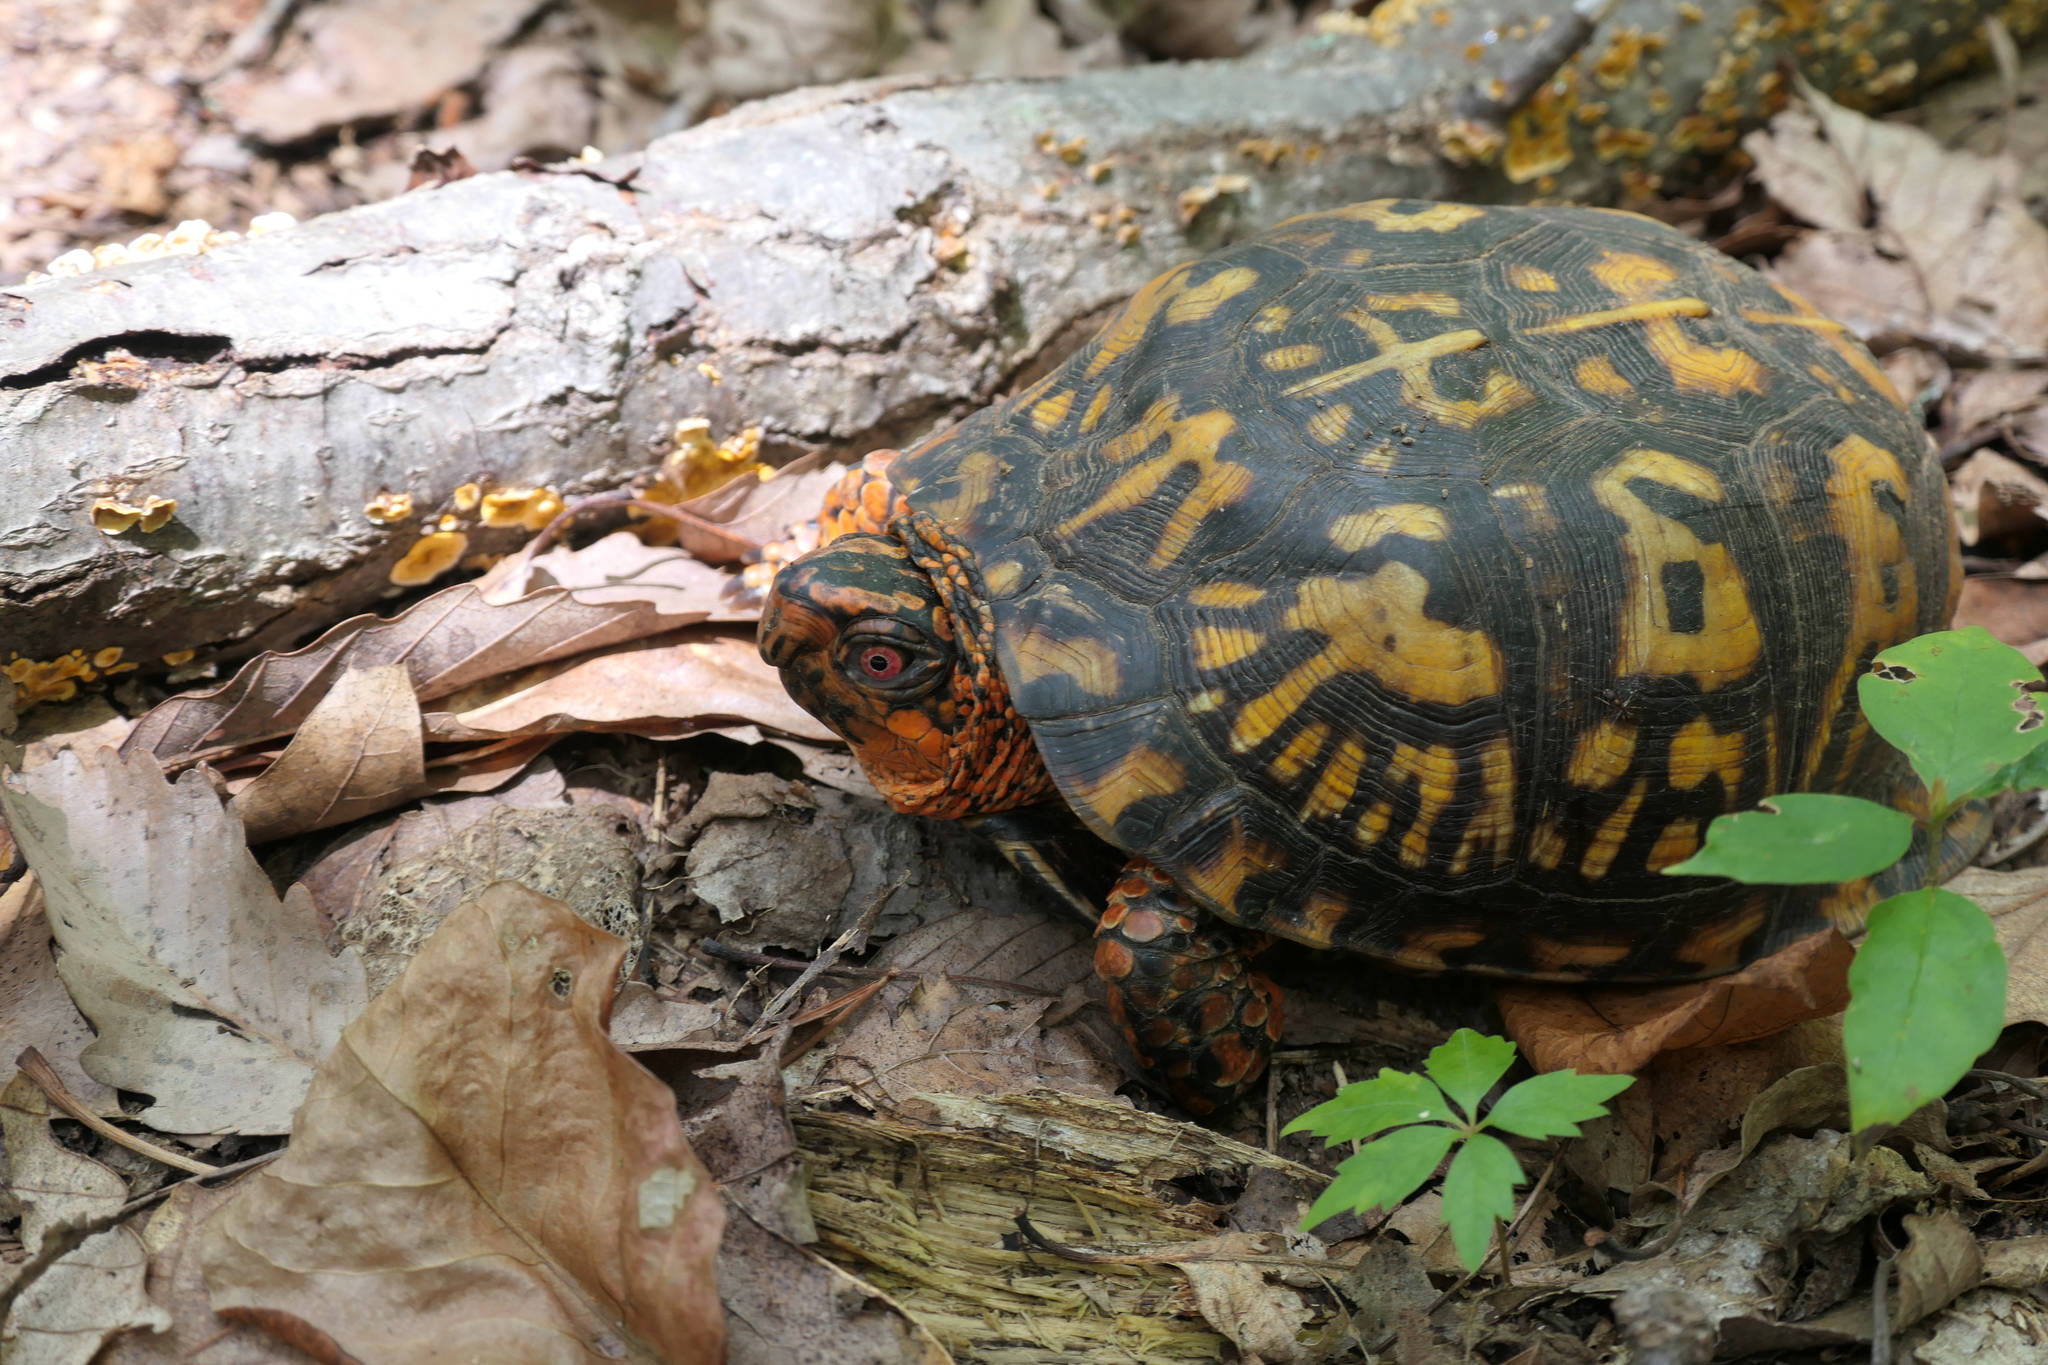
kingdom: Animalia
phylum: Chordata
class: Testudines
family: Emydidae
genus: Terrapene
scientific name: Terrapene carolina
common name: Common box turtle
